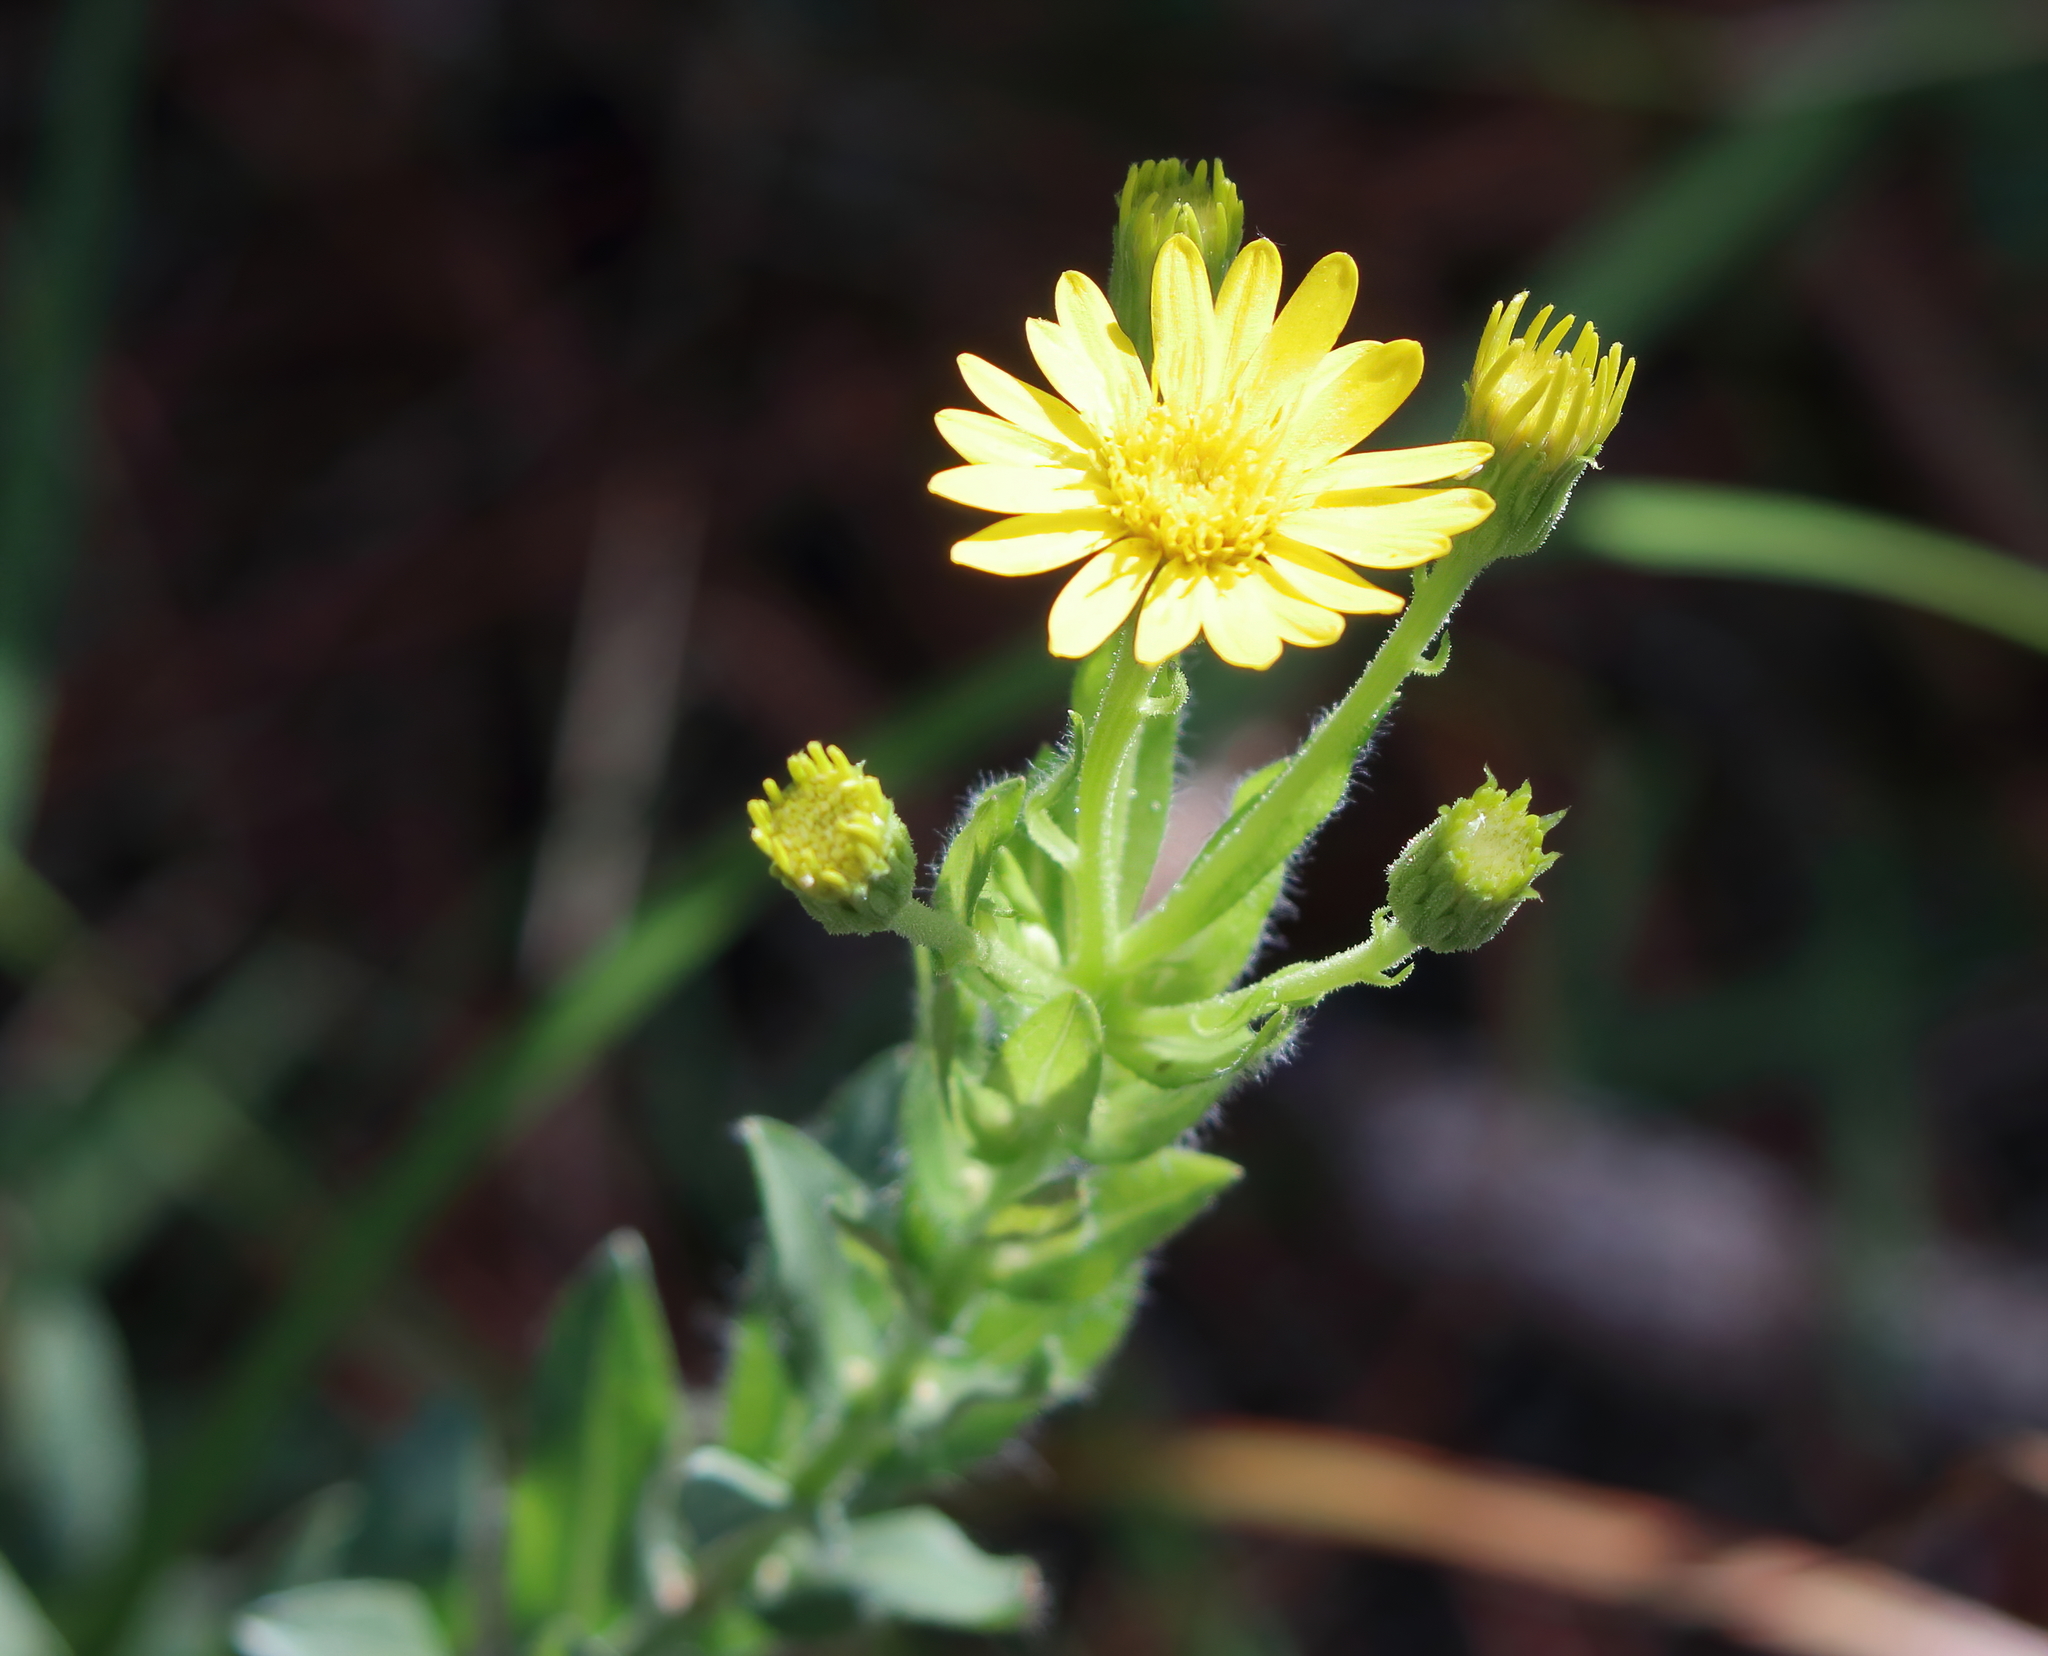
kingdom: Plantae
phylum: Tracheophyta
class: Magnoliopsida
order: Asterales
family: Asteraceae
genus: Chrysopsis
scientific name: Chrysopsis mariana
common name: Maryland golden-aster
